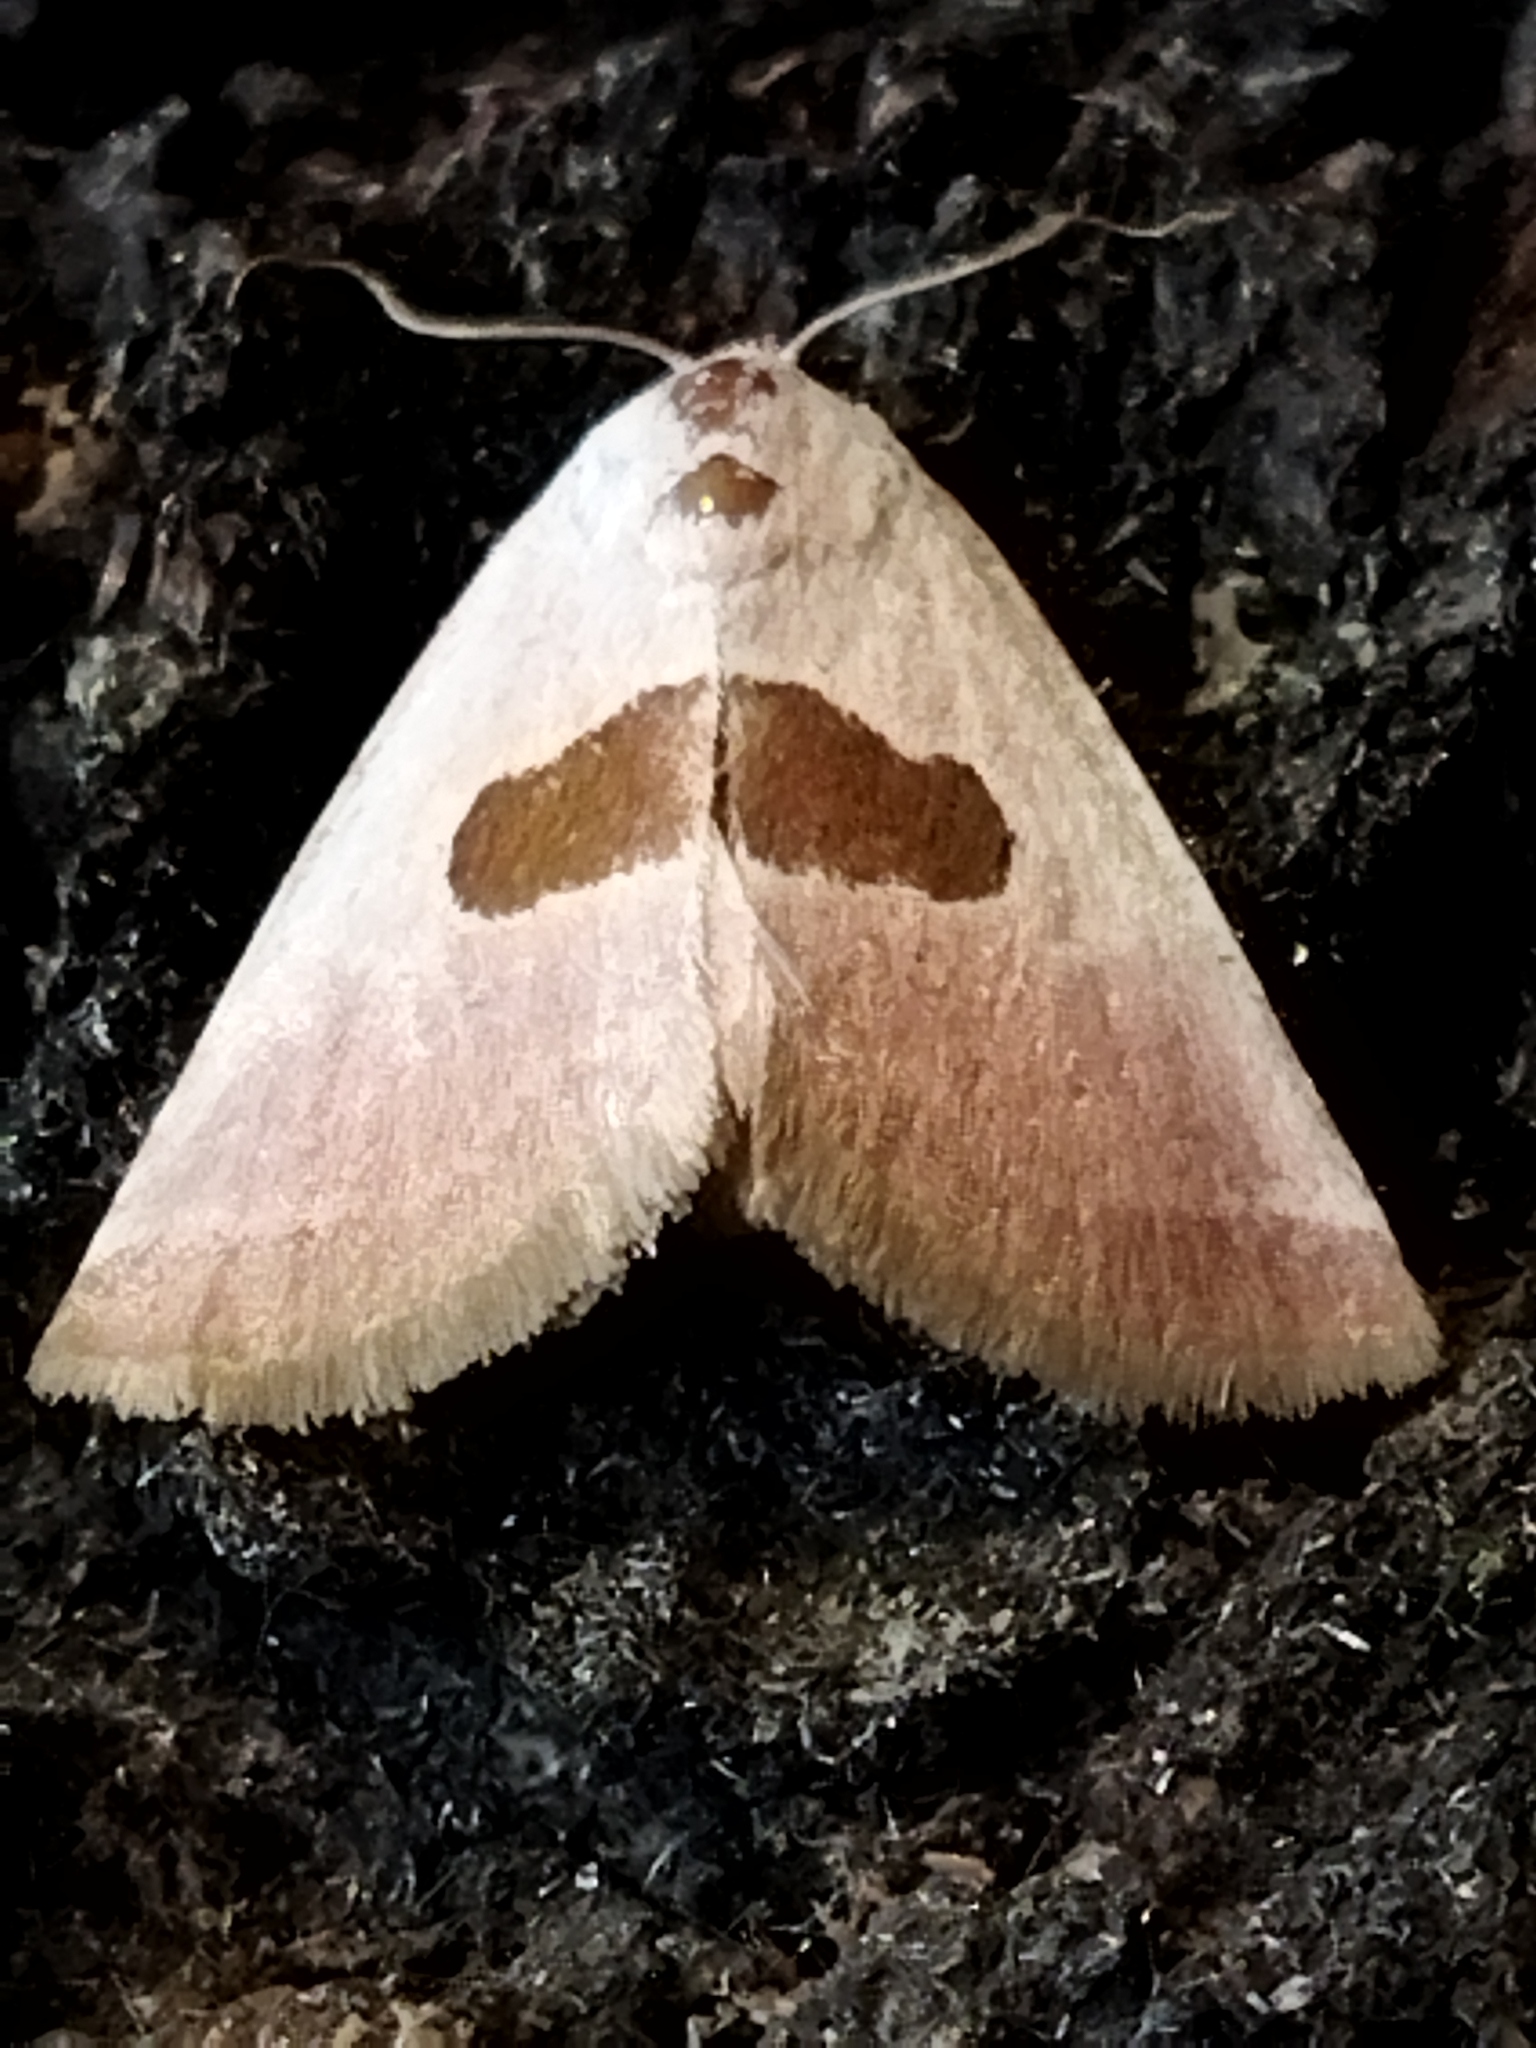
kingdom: Animalia
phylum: Arthropoda
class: Insecta
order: Lepidoptera
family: Noctuidae
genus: Calymma
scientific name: Calymma communimacula
